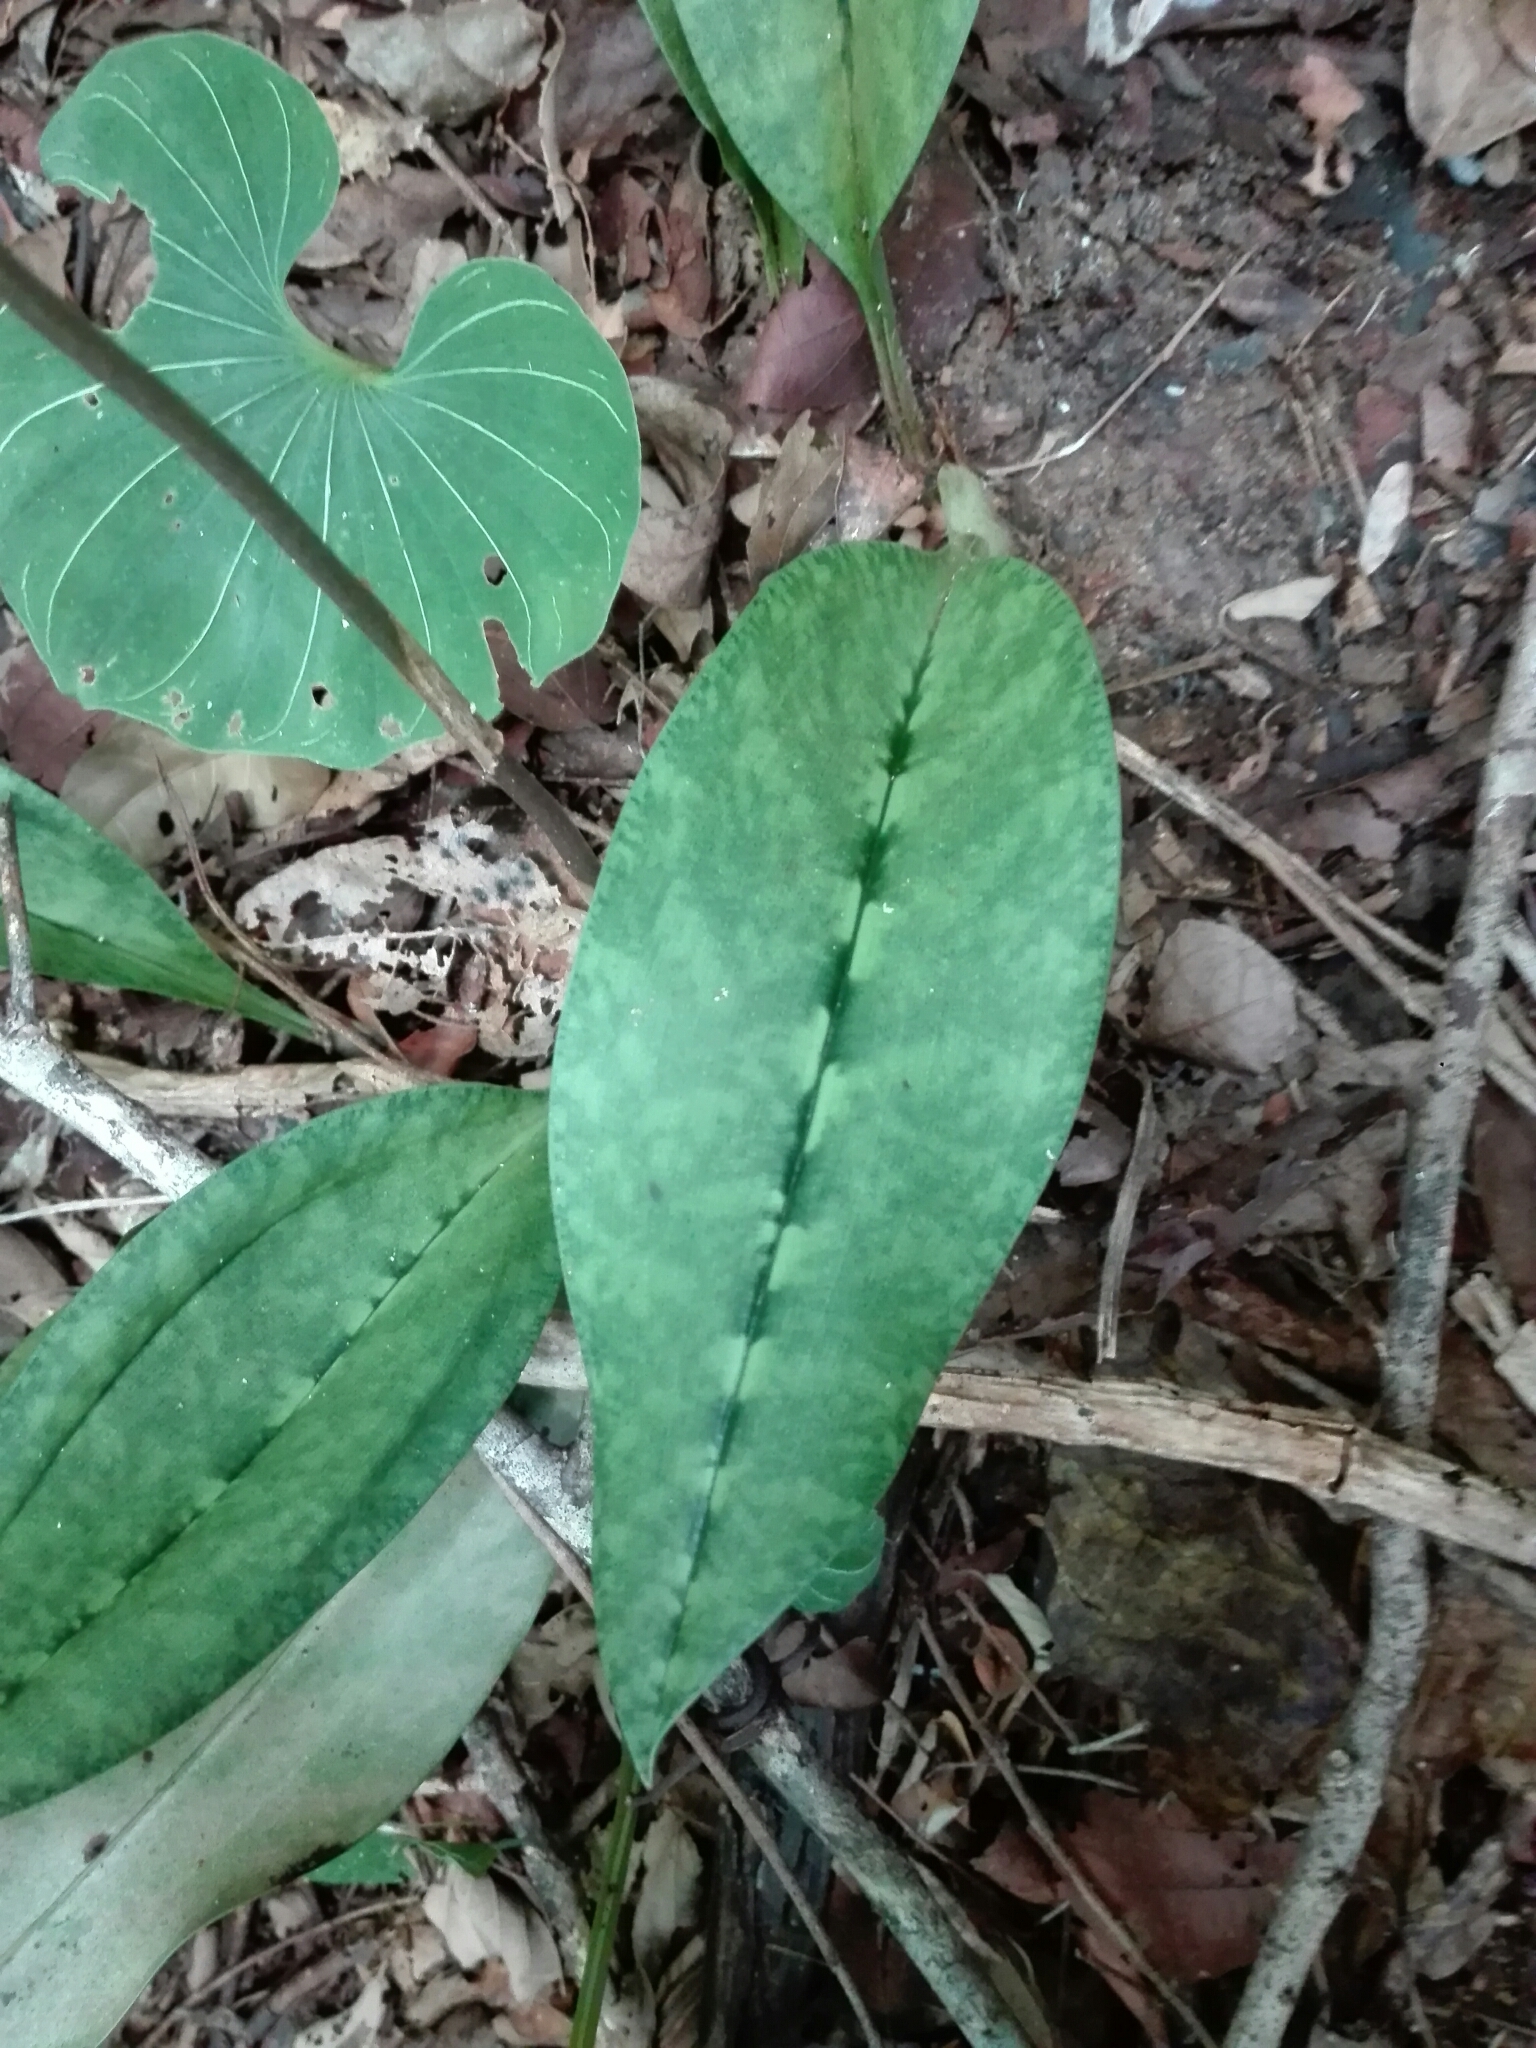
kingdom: Plantae
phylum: Tracheophyta
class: Liliopsida
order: Asparagales
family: Orchidaceae
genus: Eulophia
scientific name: Eulophia maculata
